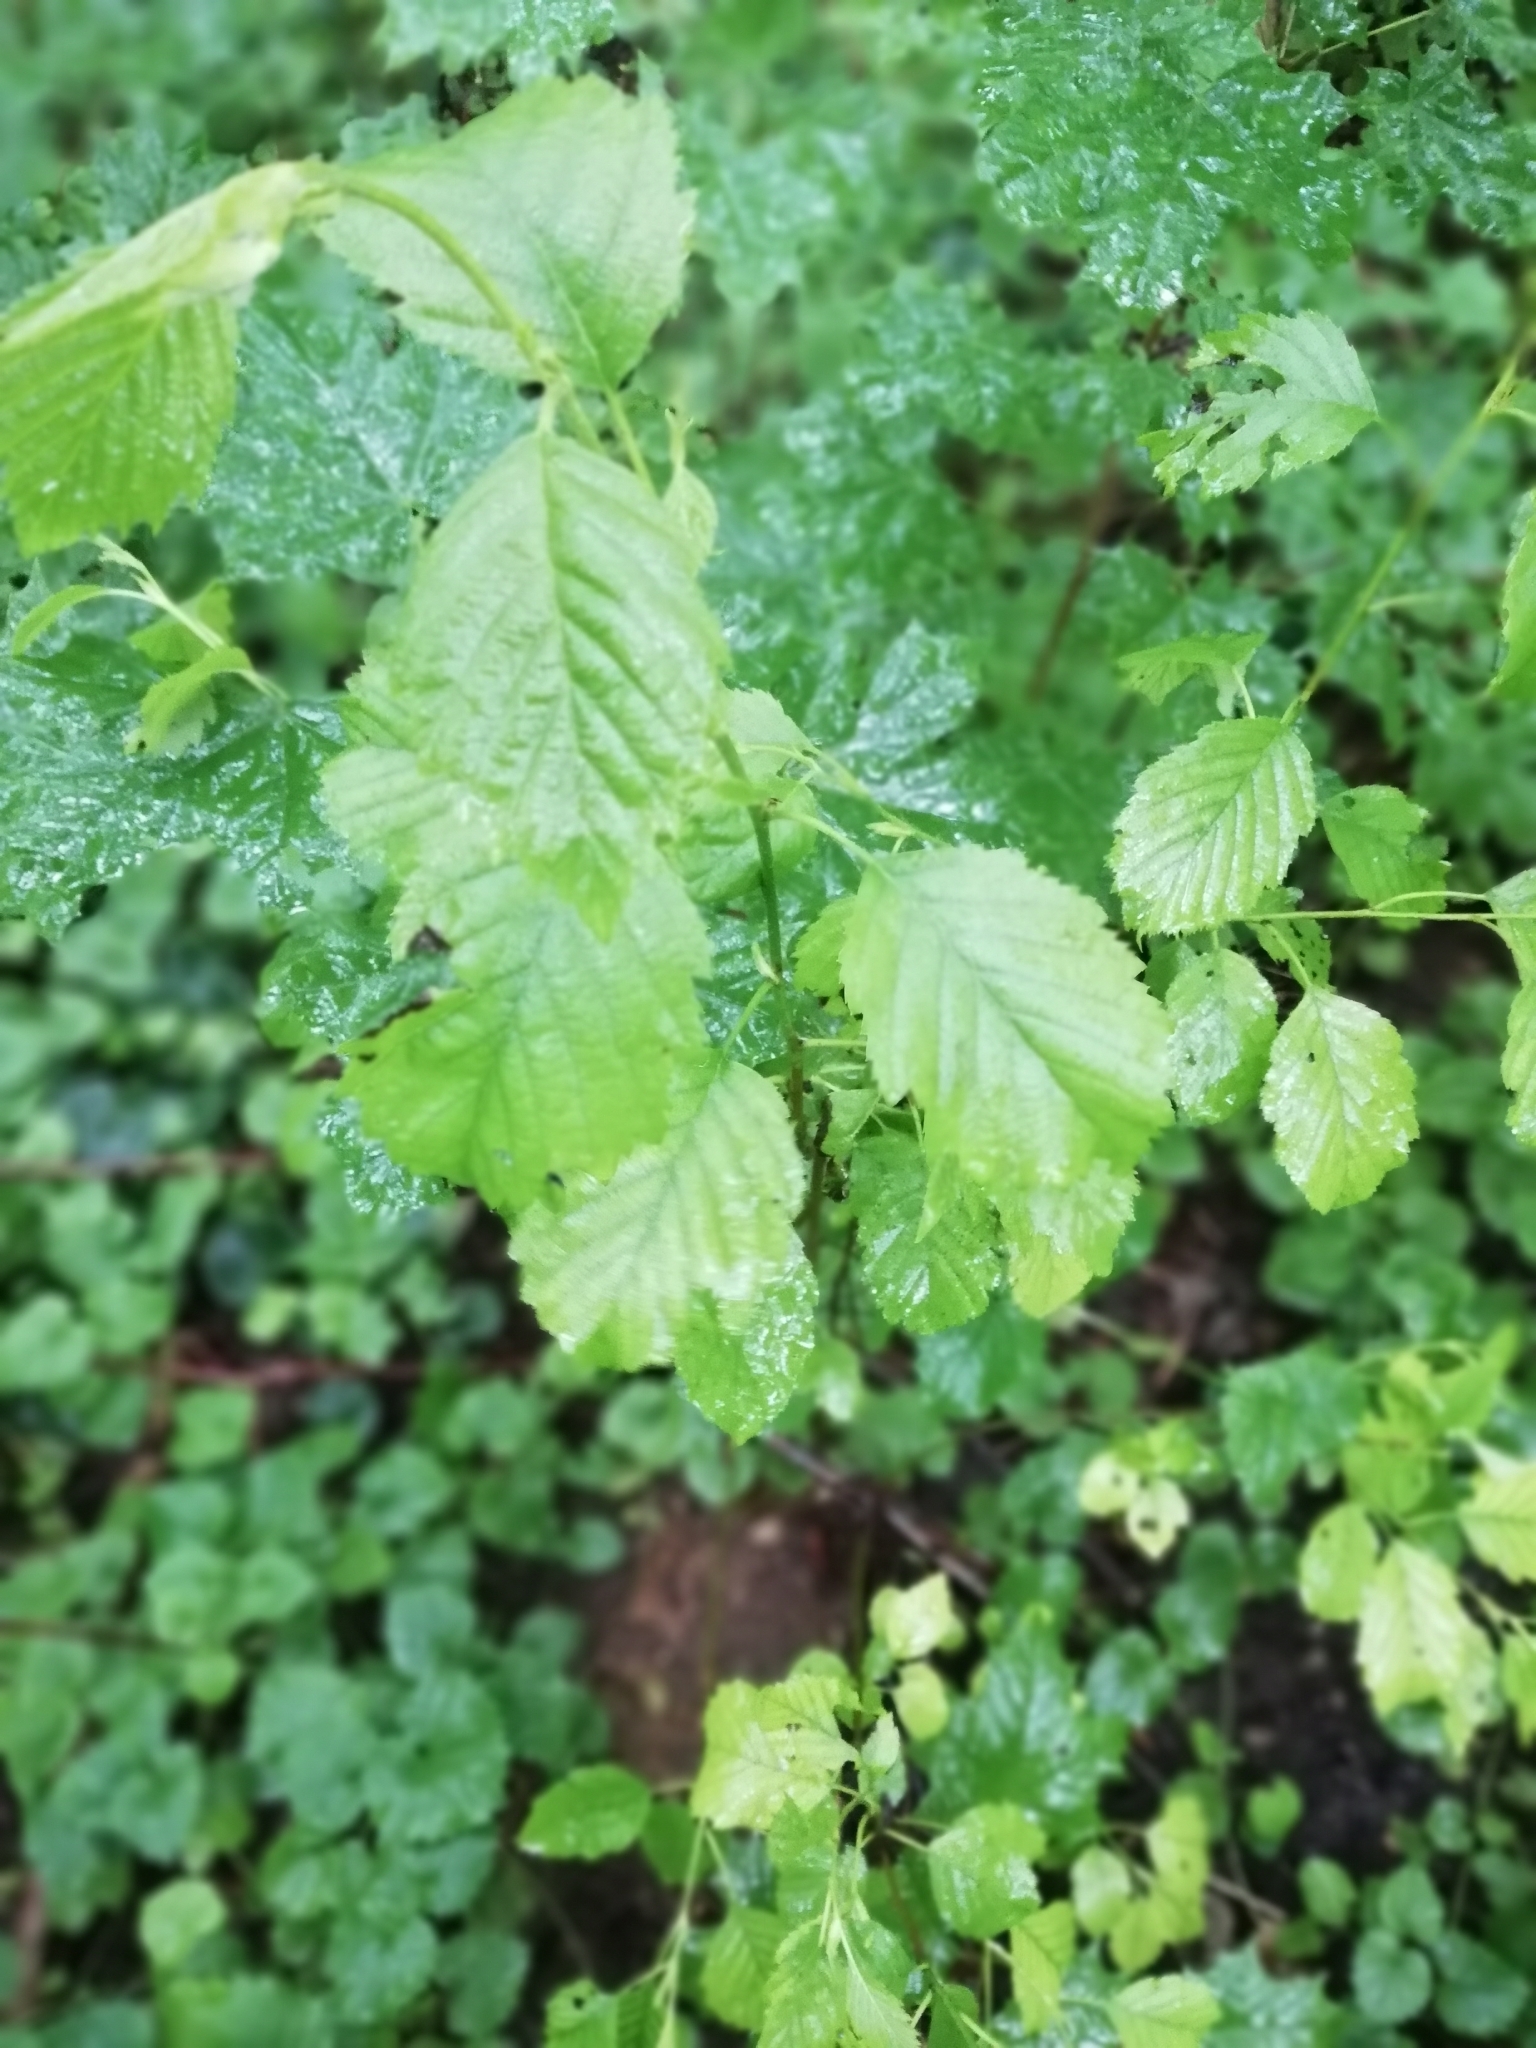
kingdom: Plantae
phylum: Tracheophyta
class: Magnoliopsida
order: Fagales
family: Betulaceae
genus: Alnus
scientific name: Alnus incana
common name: Grey alder
